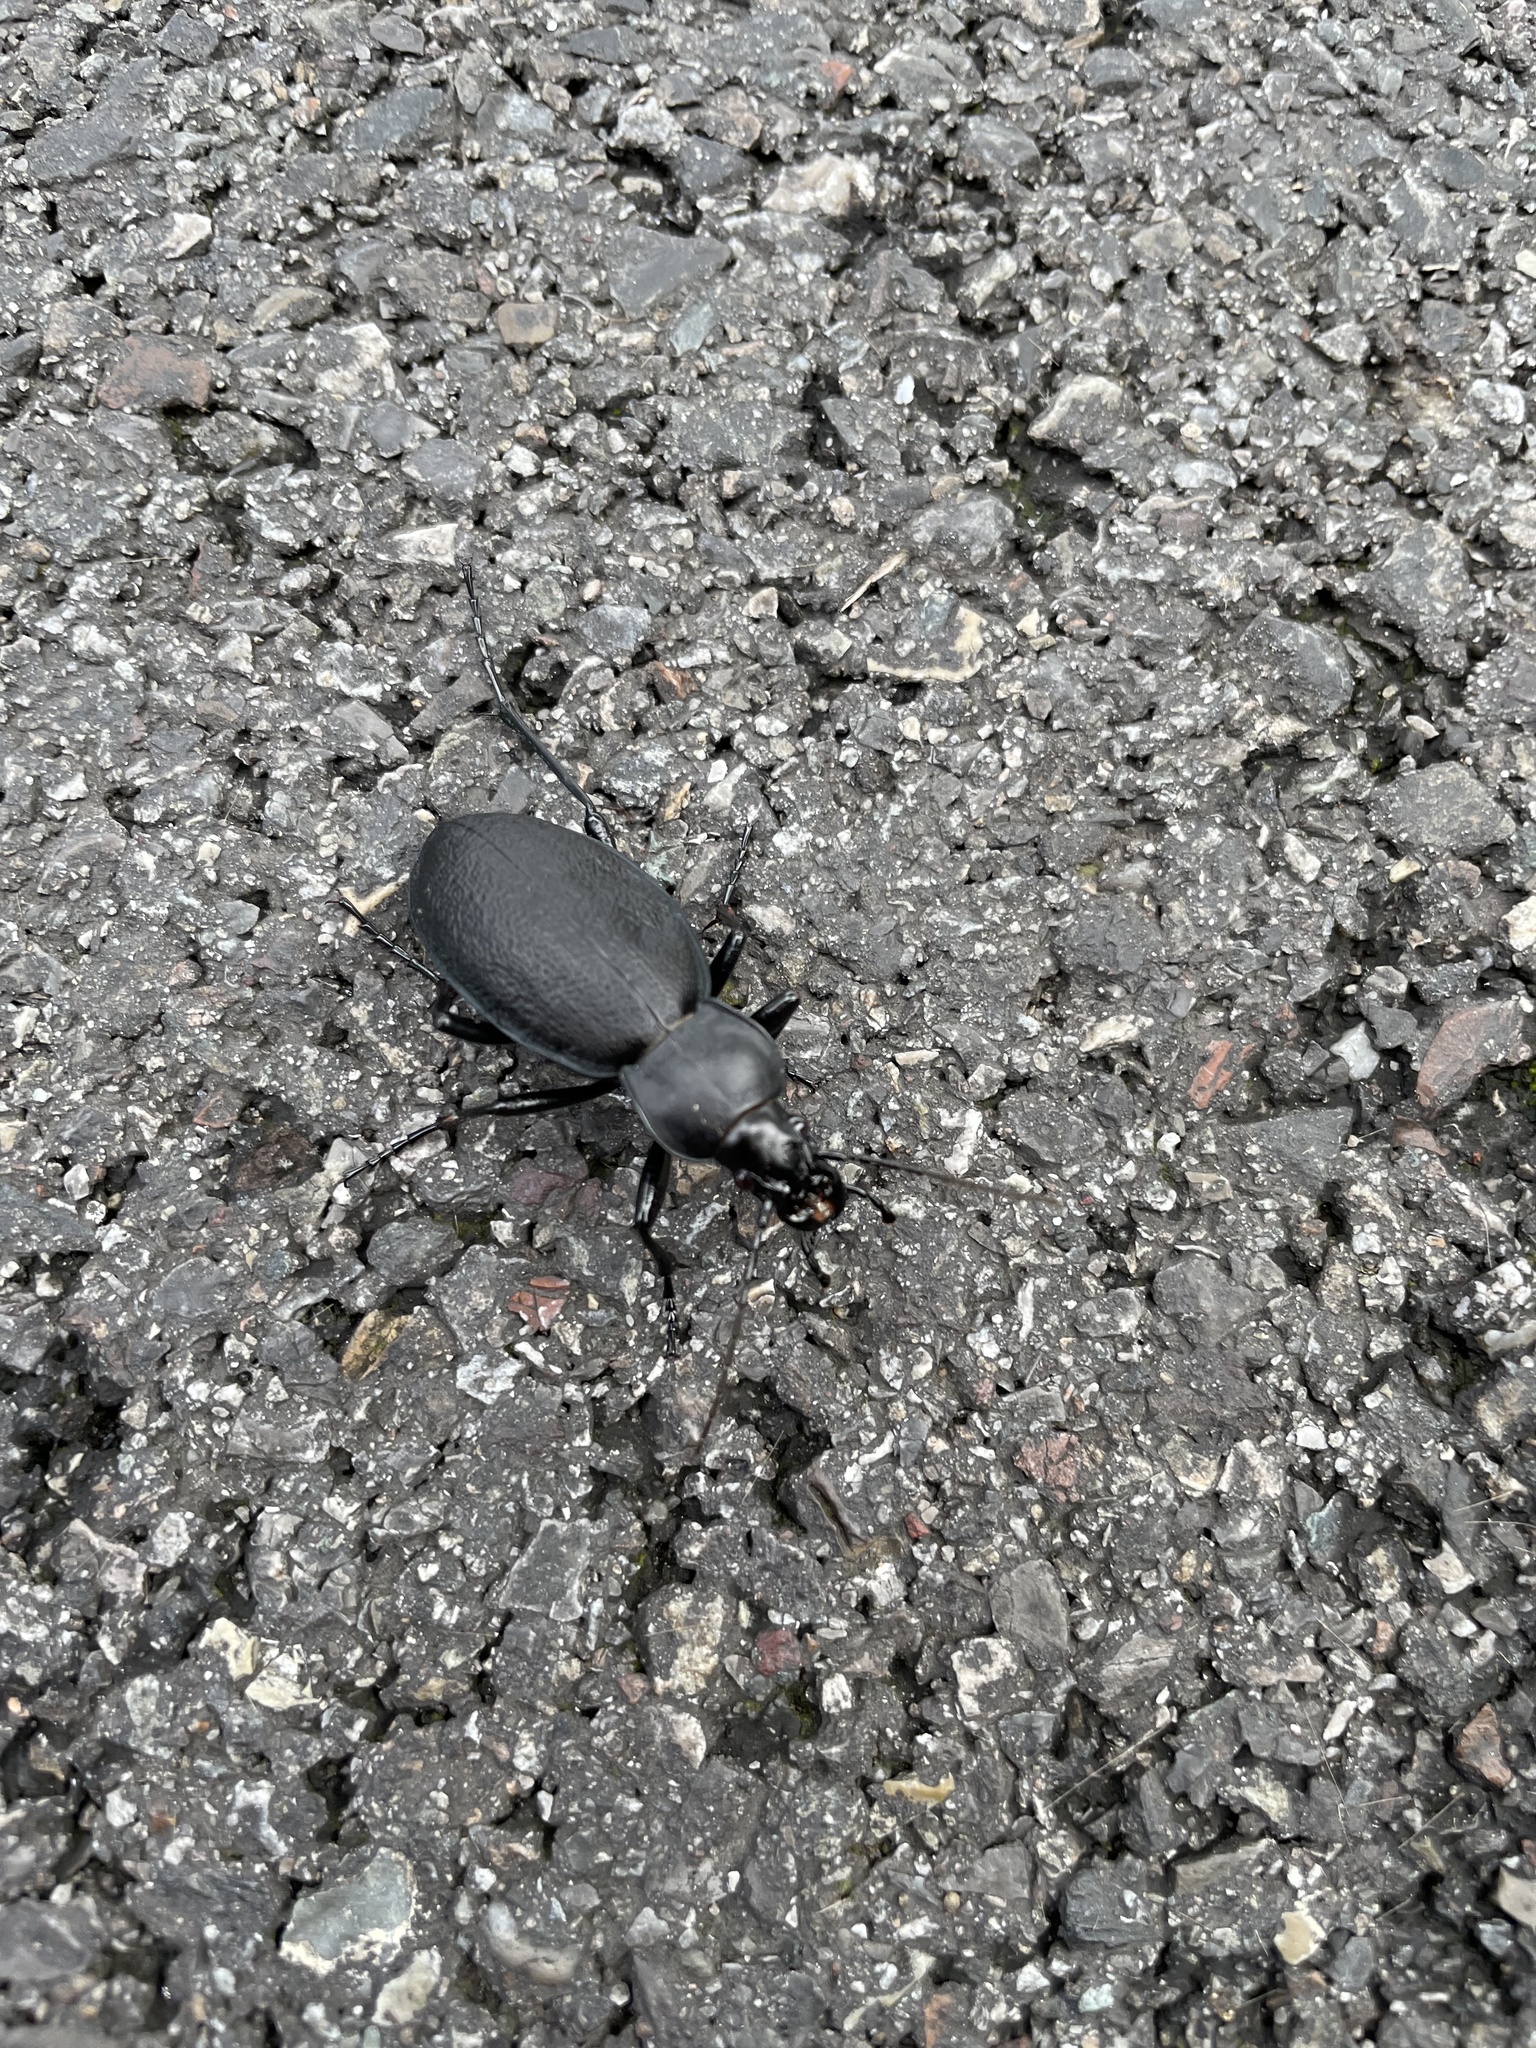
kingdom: Animalia
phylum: Arthropoda
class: Insecta
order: Coleoptera
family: Carabidae
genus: Carabus
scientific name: Carabus coriaceus
